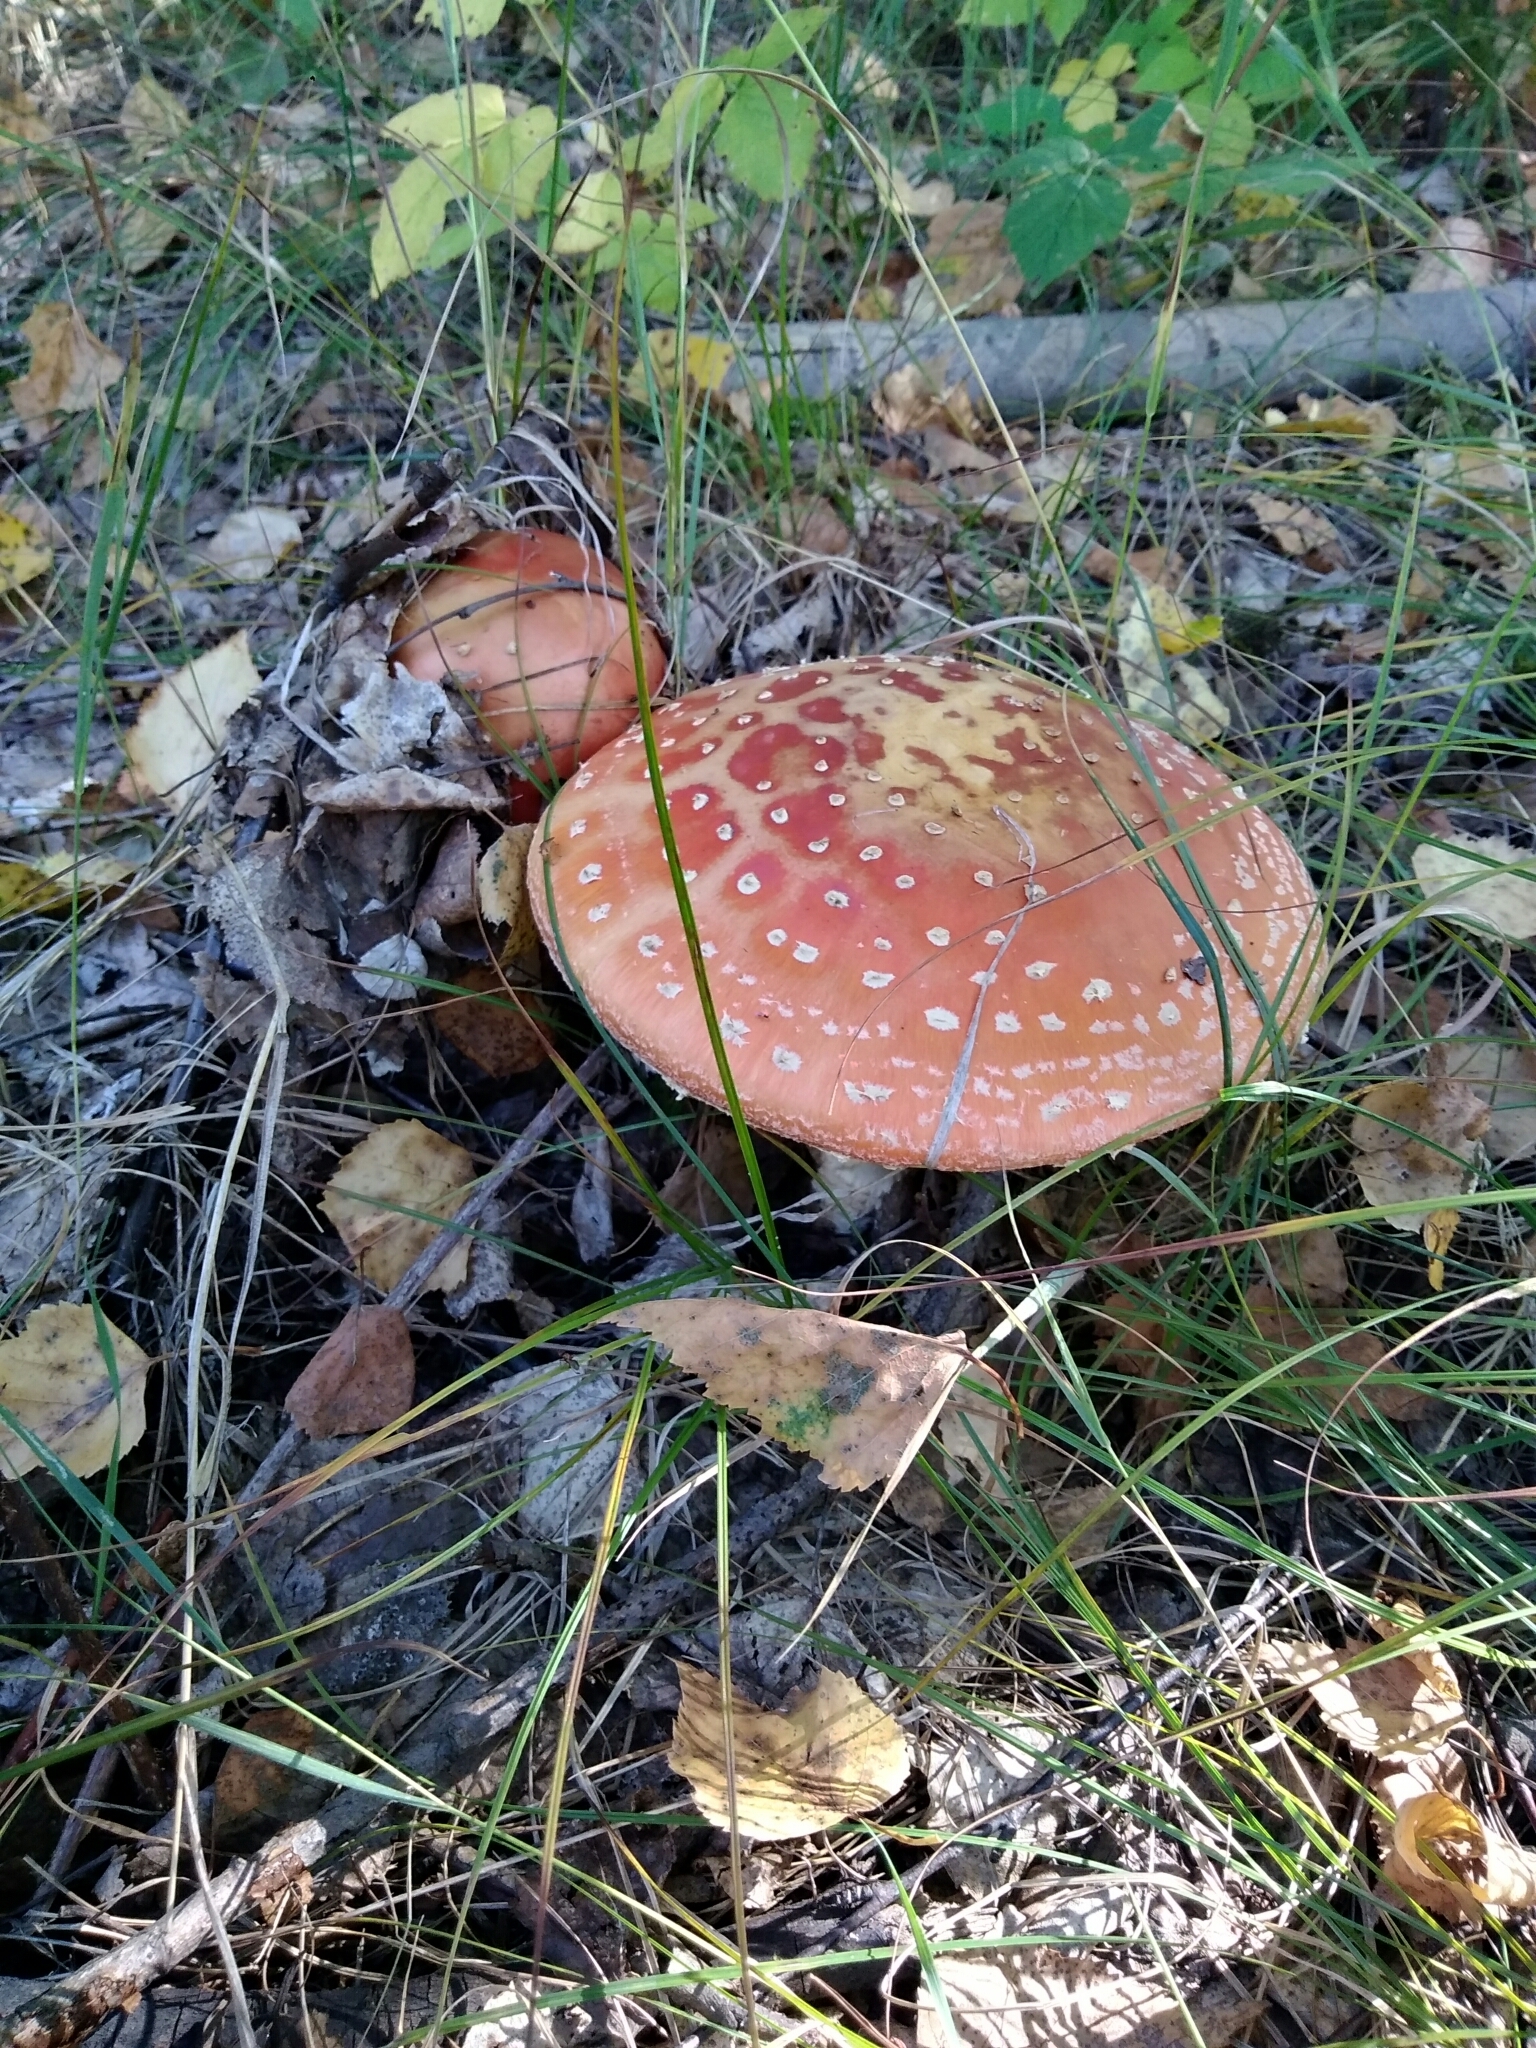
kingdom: Fungi
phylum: Basidiomycota
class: Agaricomycetes
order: Agaricales
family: Amanitaceae
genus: Amanita
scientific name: Amanita muscaria
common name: Fly agaric
